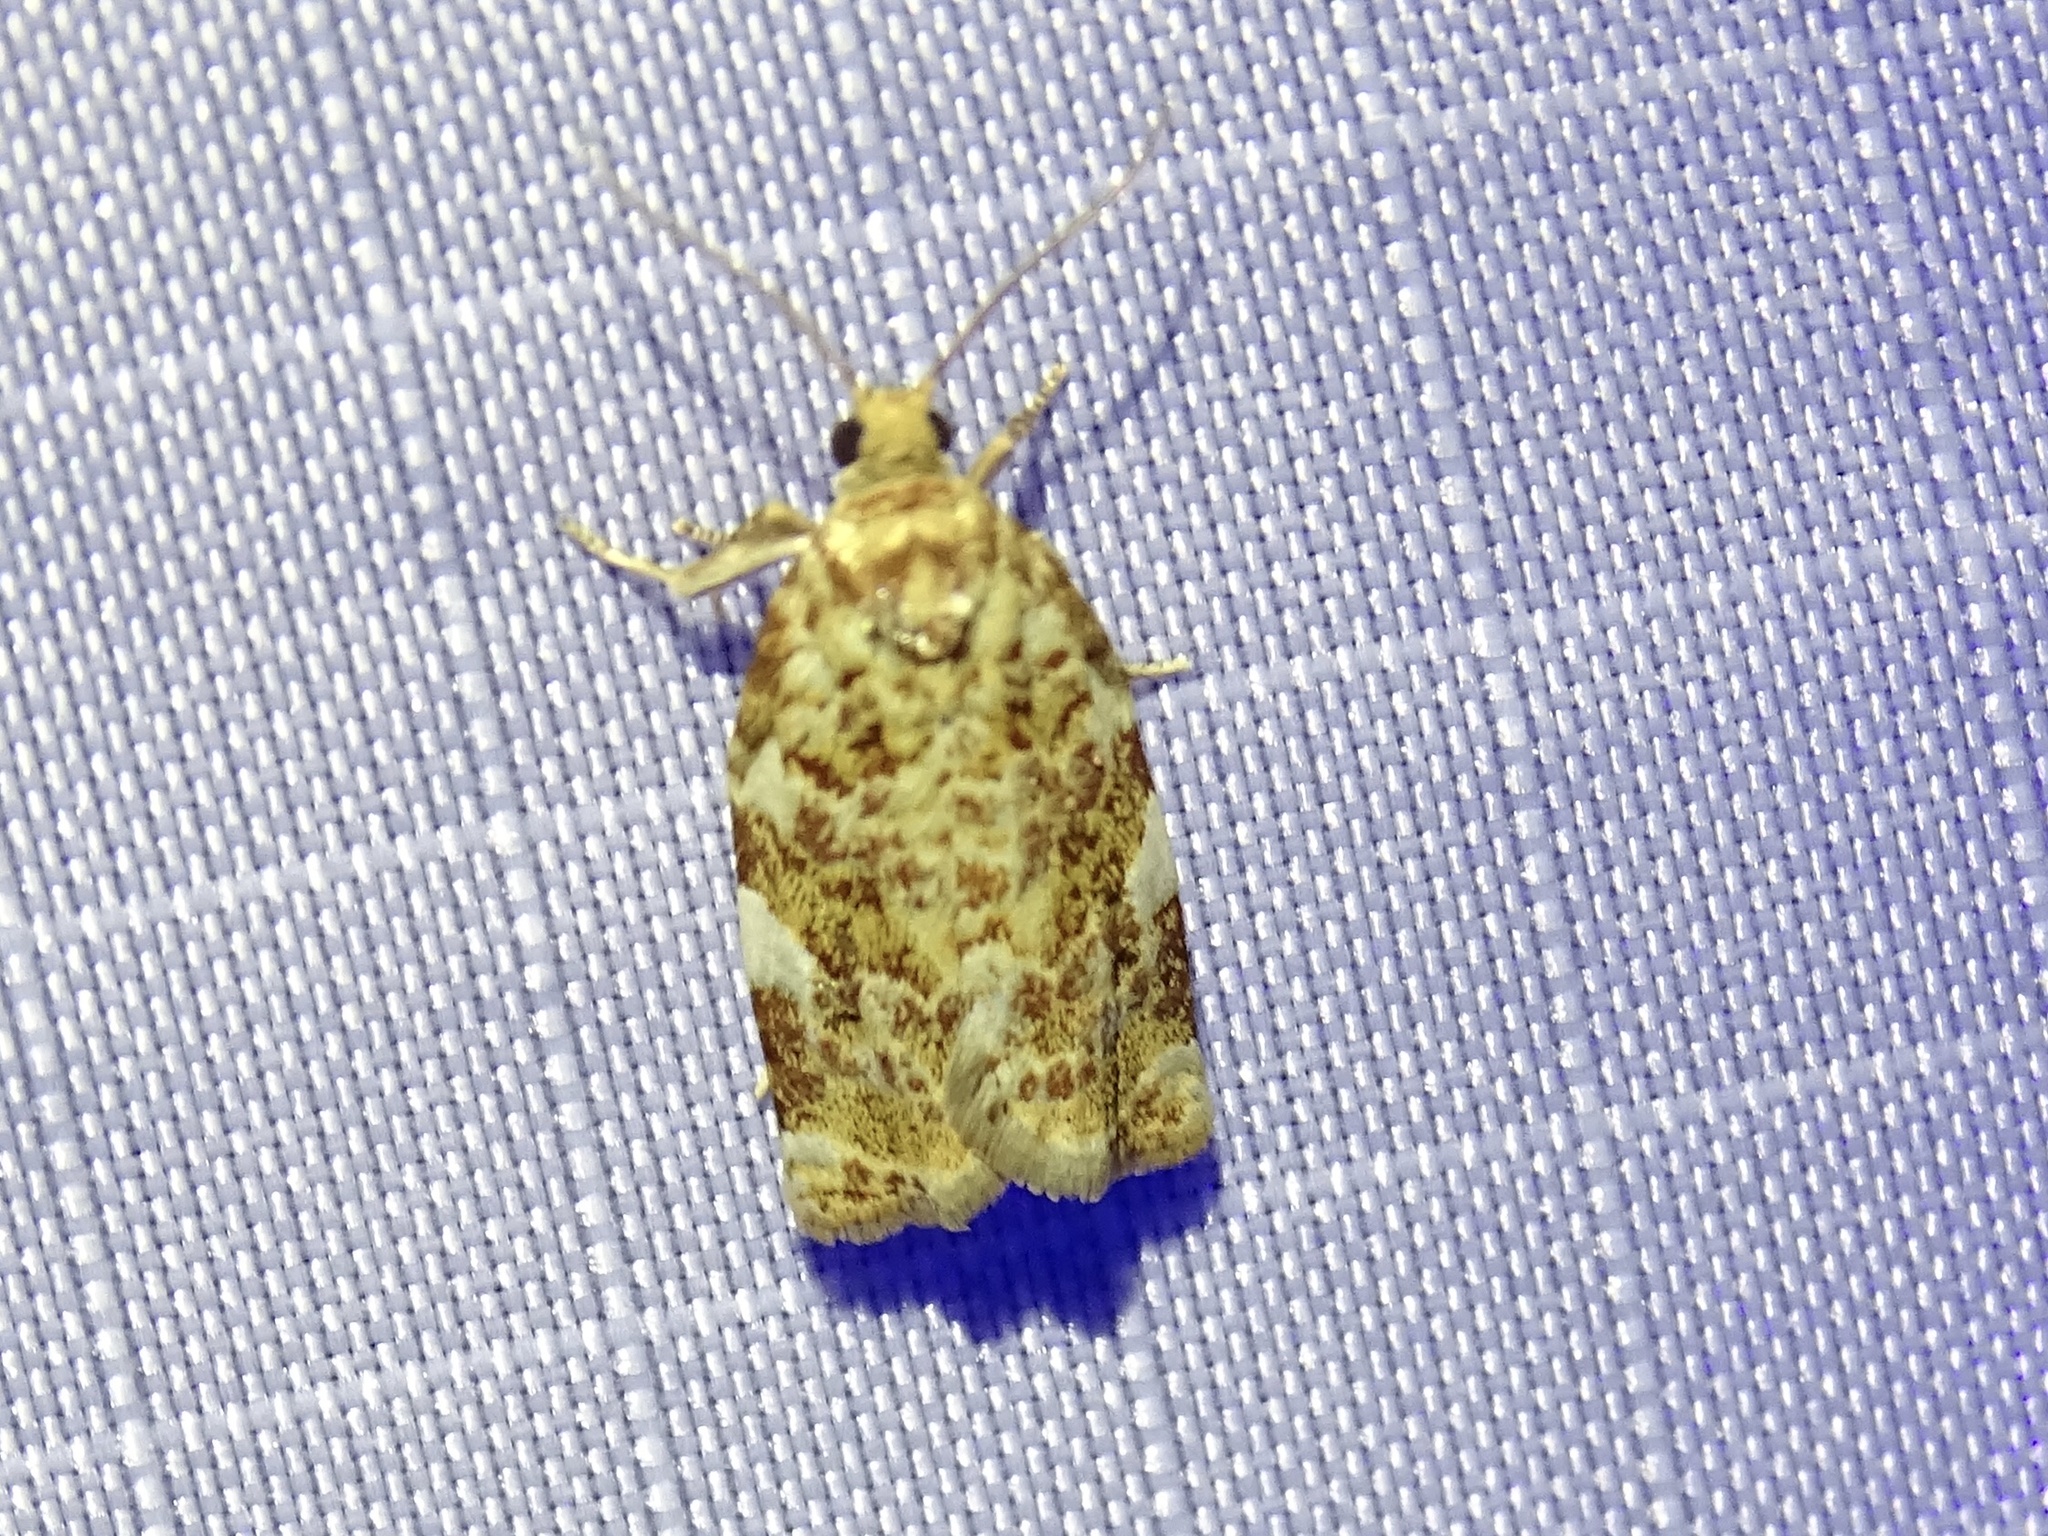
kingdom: Animalia
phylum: Arthropoda
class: Insecta
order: Lepidoptera
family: Tortricidae
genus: Archips
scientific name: Archips argyrospila
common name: Fruit-tree leafroller moth
